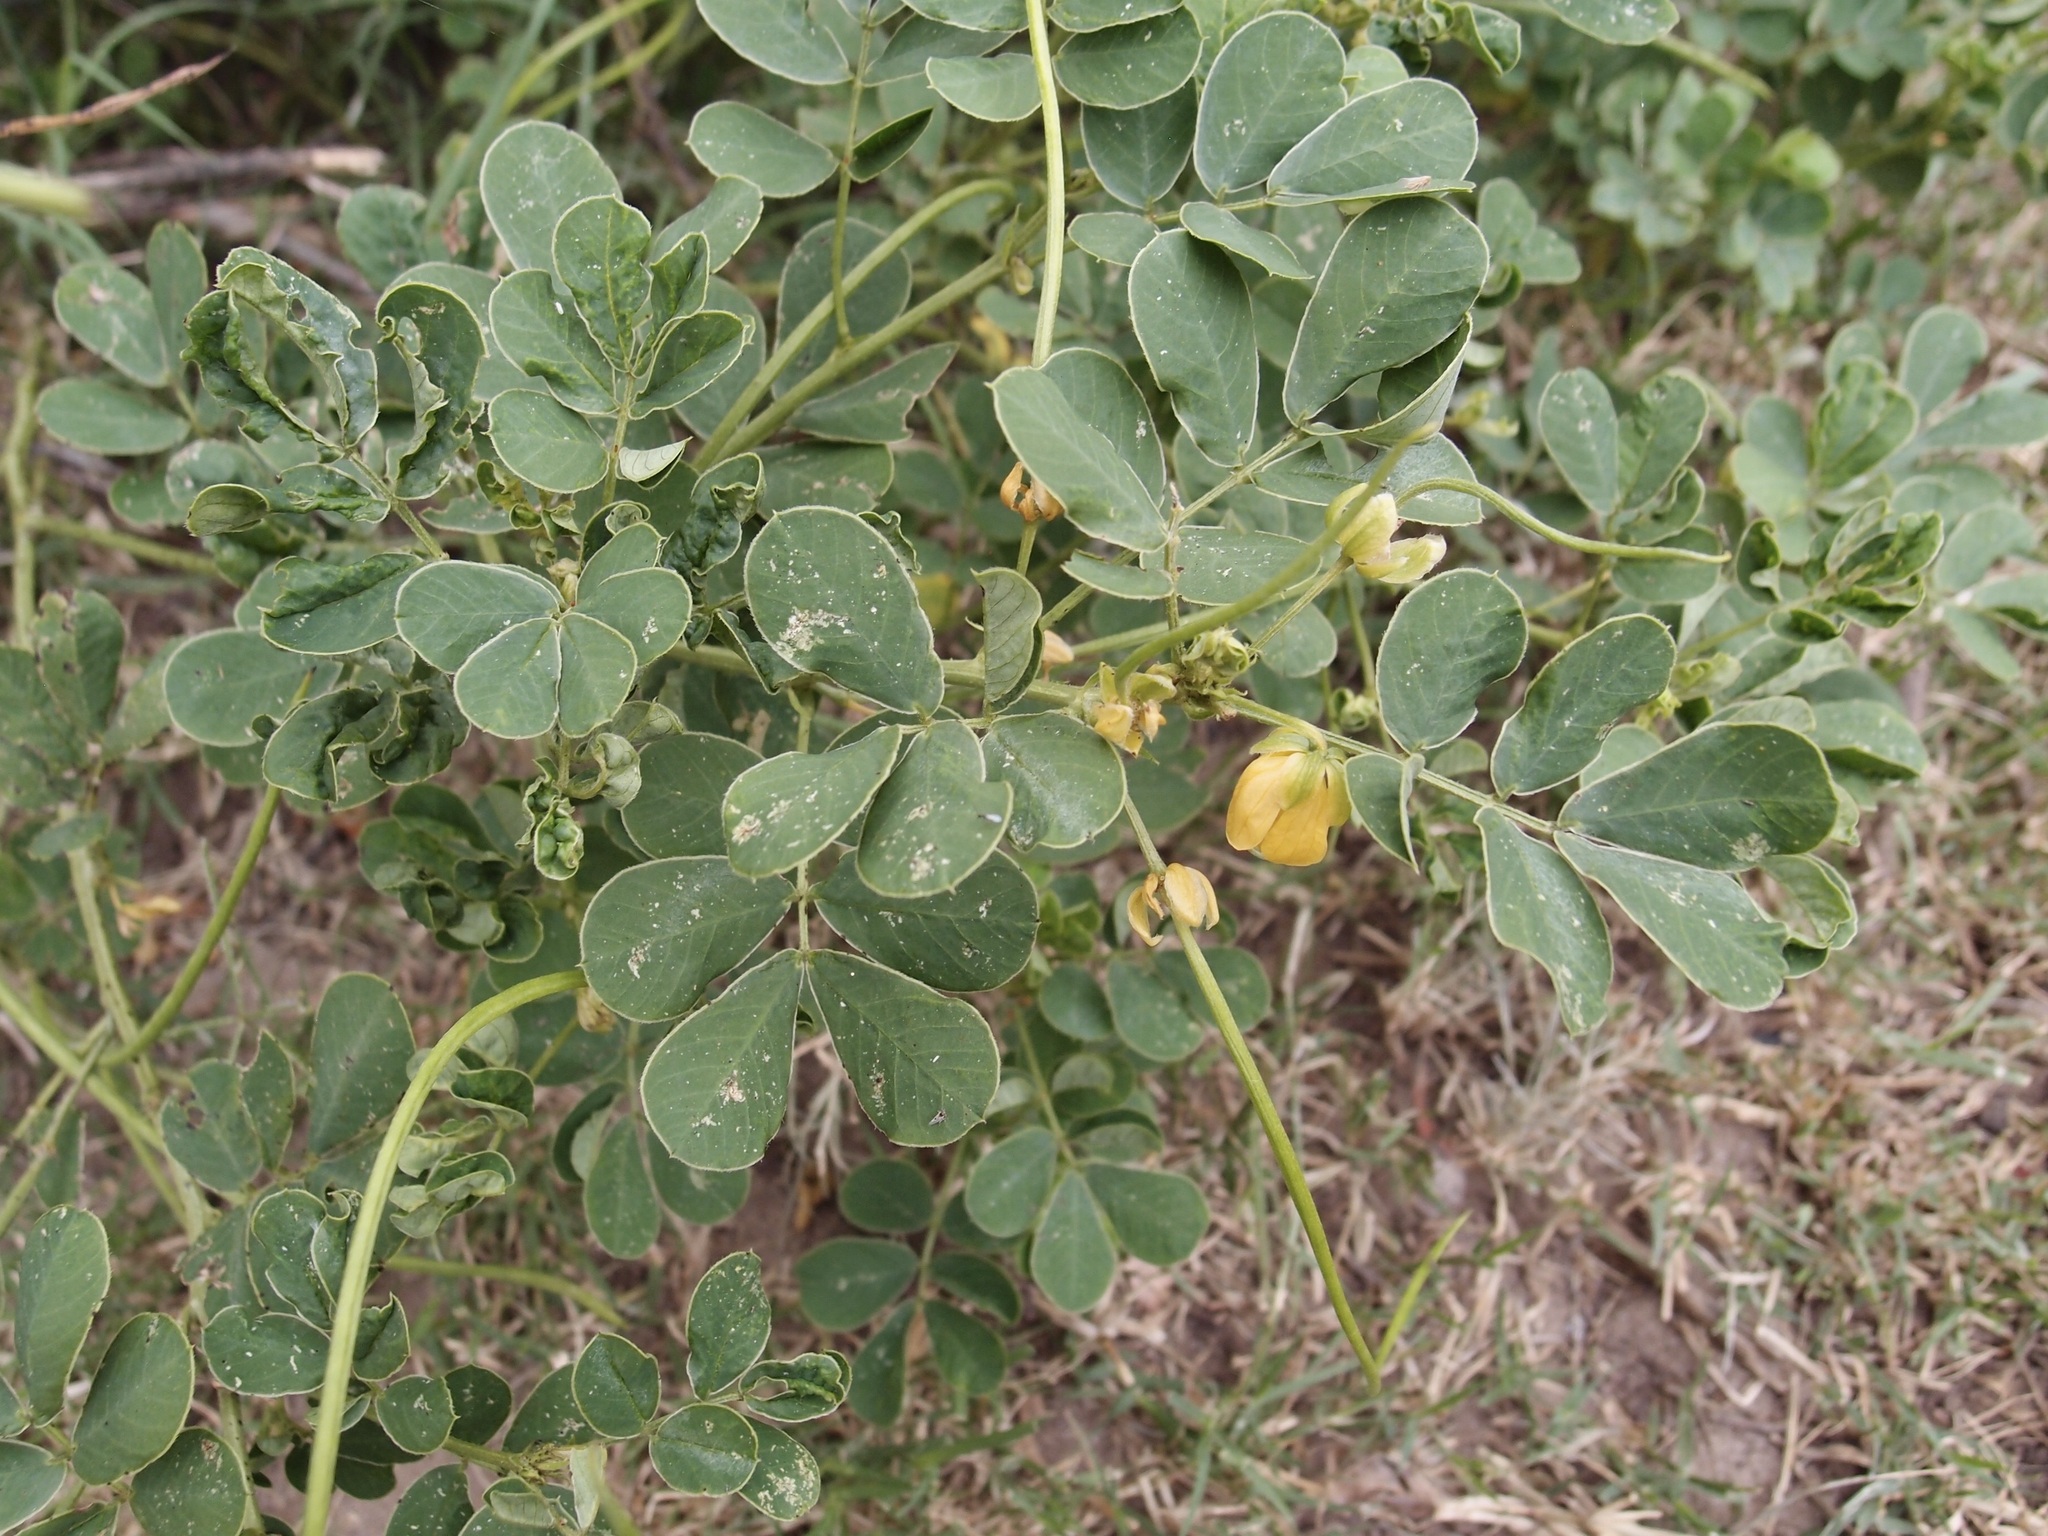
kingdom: Plantae
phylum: Tracheophyta
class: Magnoliopsida
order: Fabales
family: Fabaceae
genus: Senna
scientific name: Senna obtusifolia
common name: Java-bean
